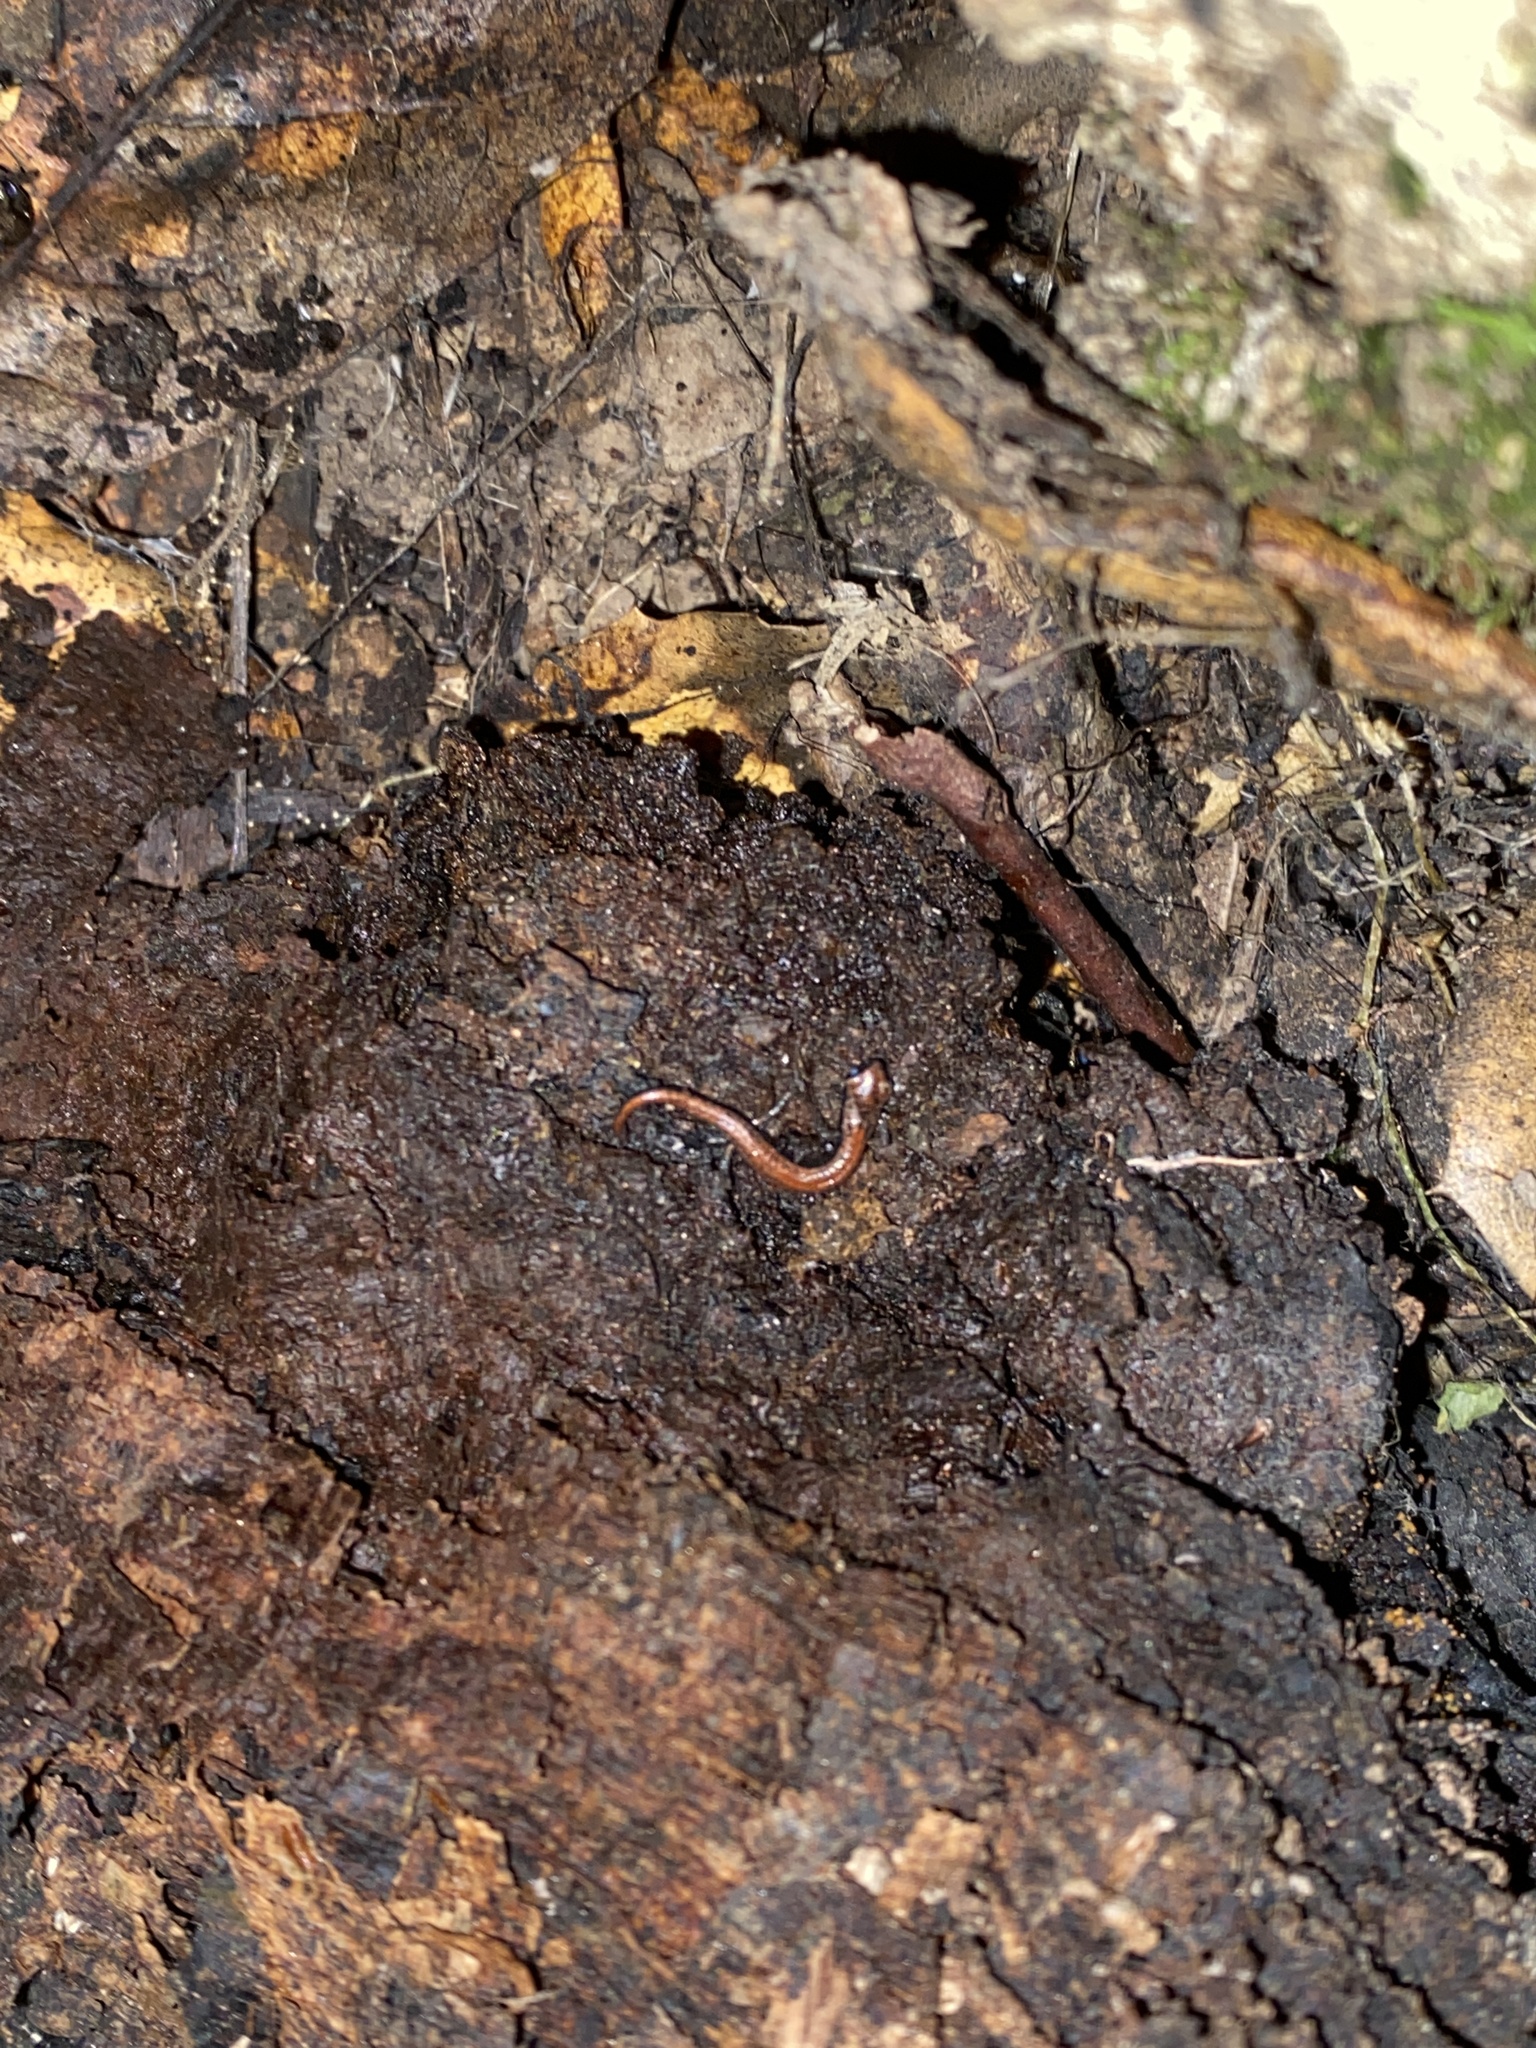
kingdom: Animalia
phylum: Chordata
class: Amphibia
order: Caudata
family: Plethodontidae
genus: Batrachoseps
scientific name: Batrachoseps attenuatus
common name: California slender salamander
